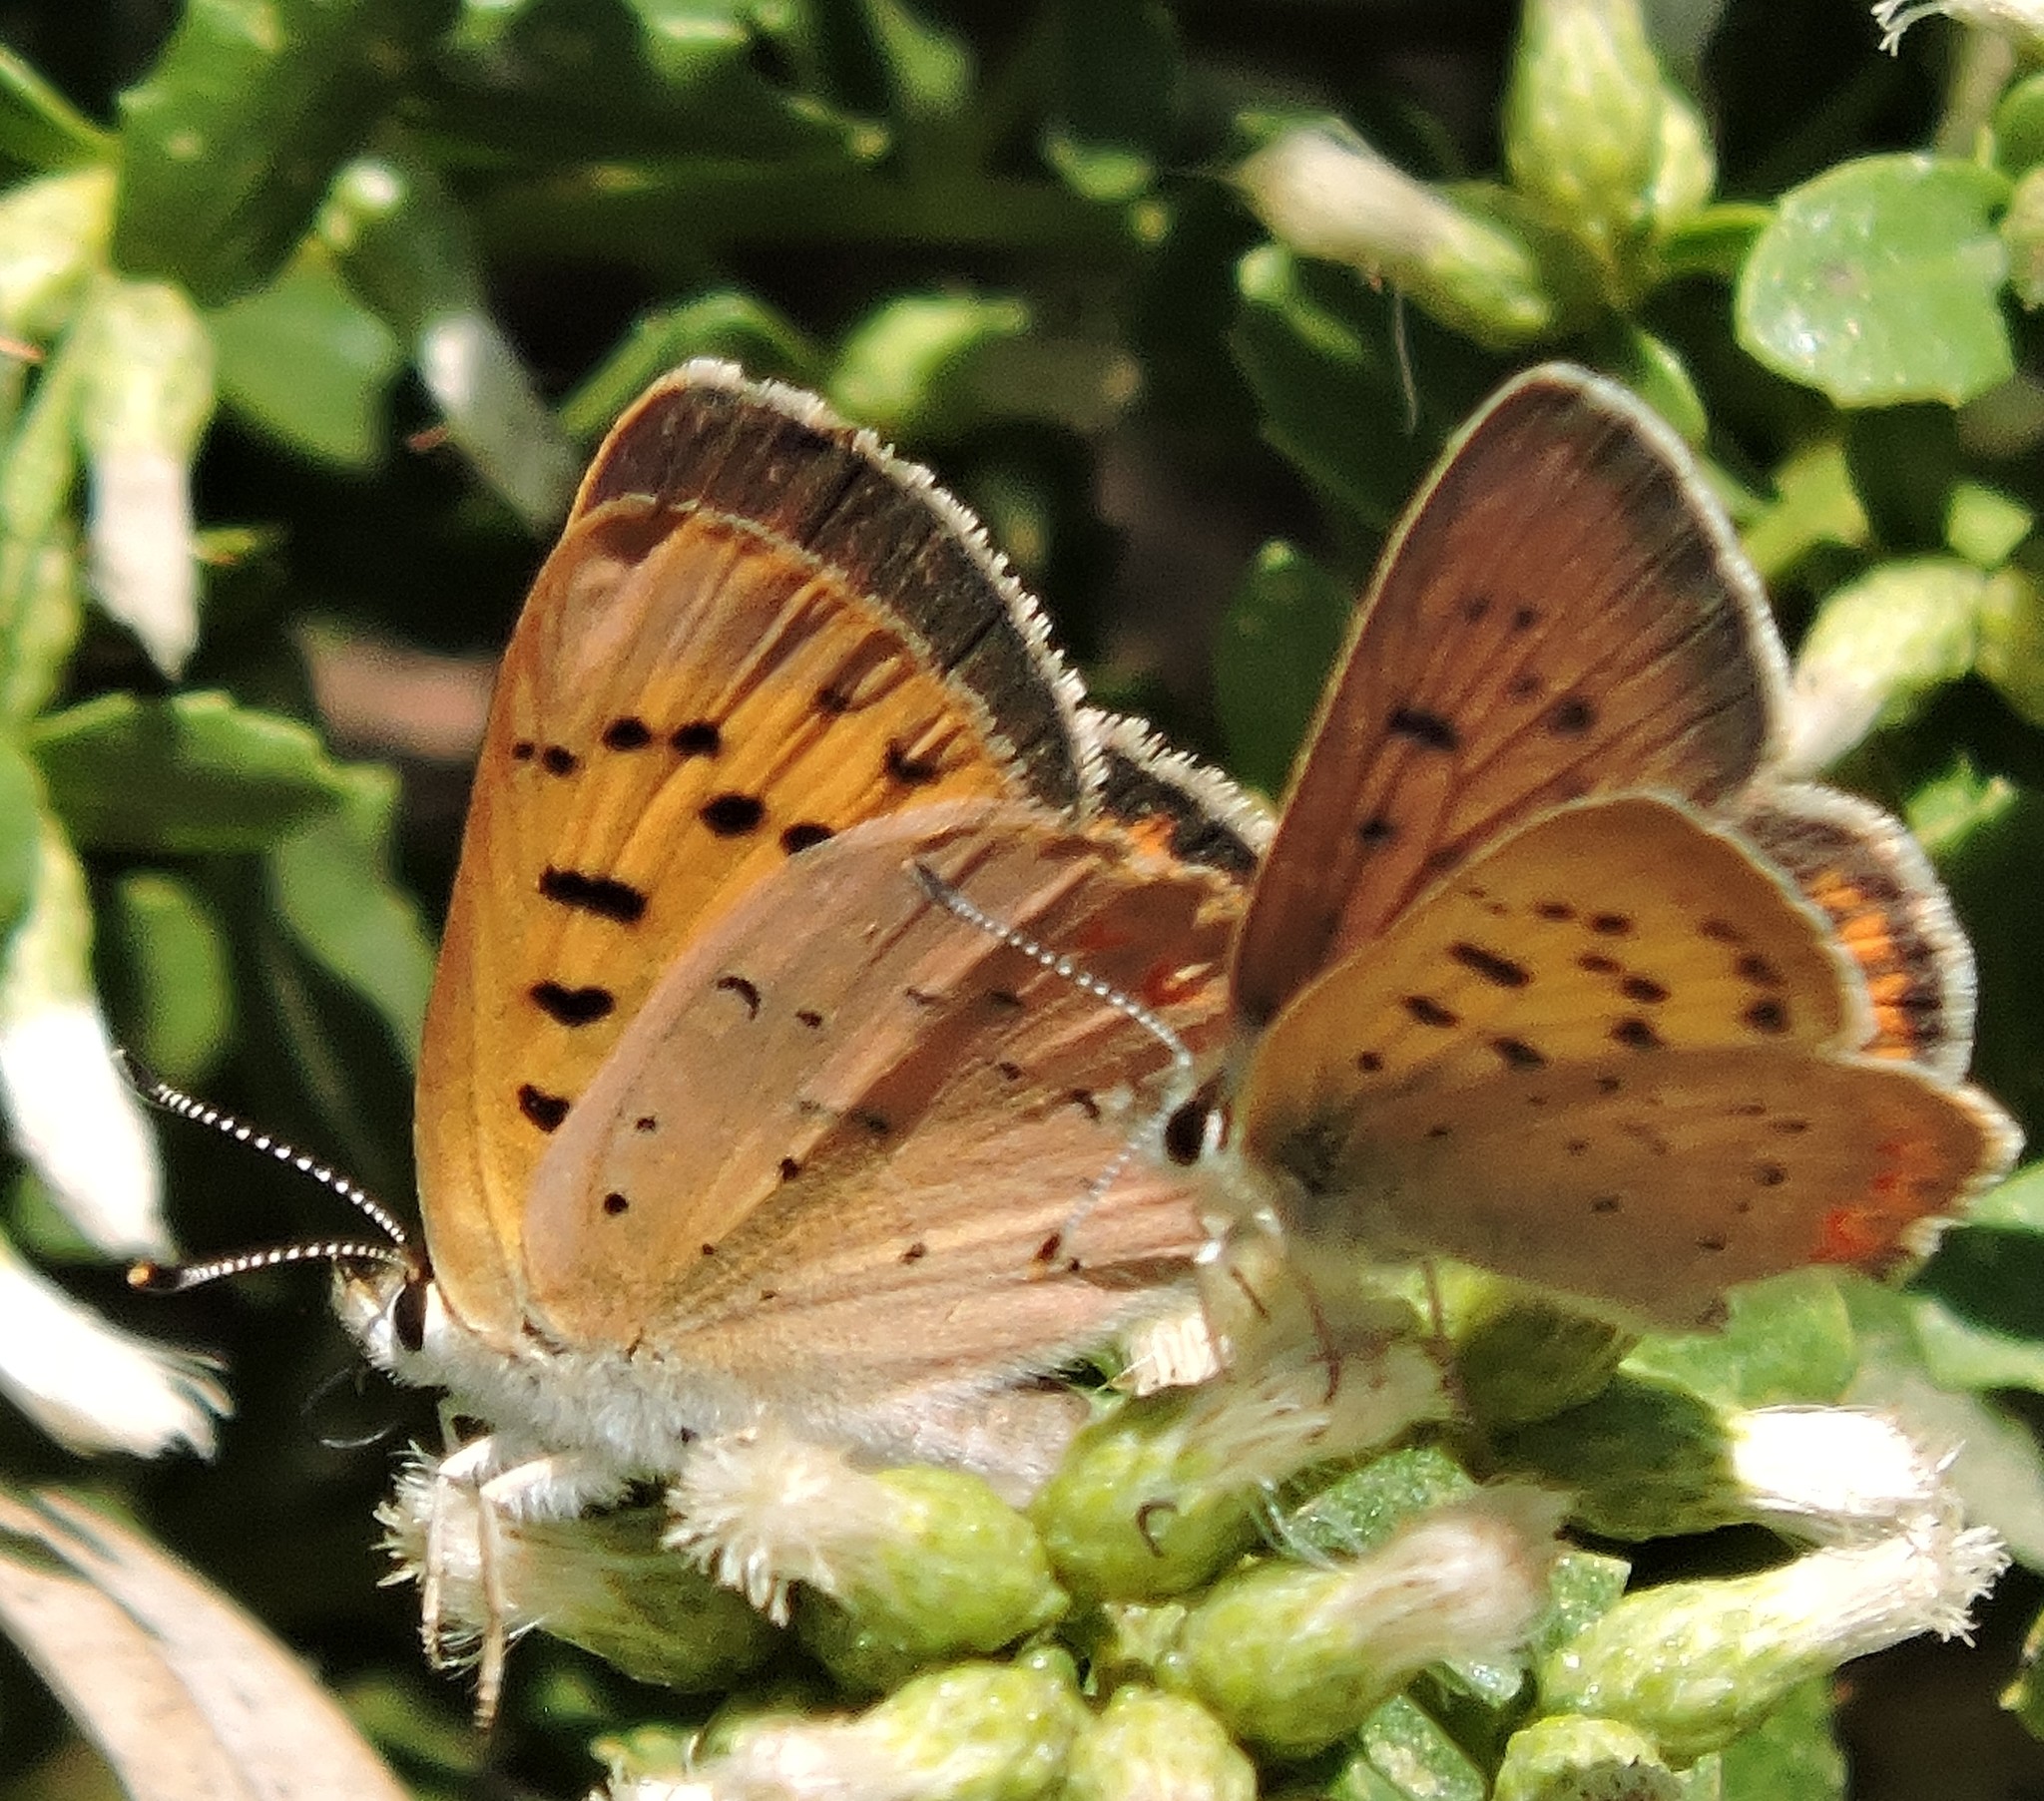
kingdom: Animalia
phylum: Arthropoda
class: Insecta
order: Lepidoptera
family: Lycaenidae
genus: Tharsalea
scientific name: Tharsalea helloides
